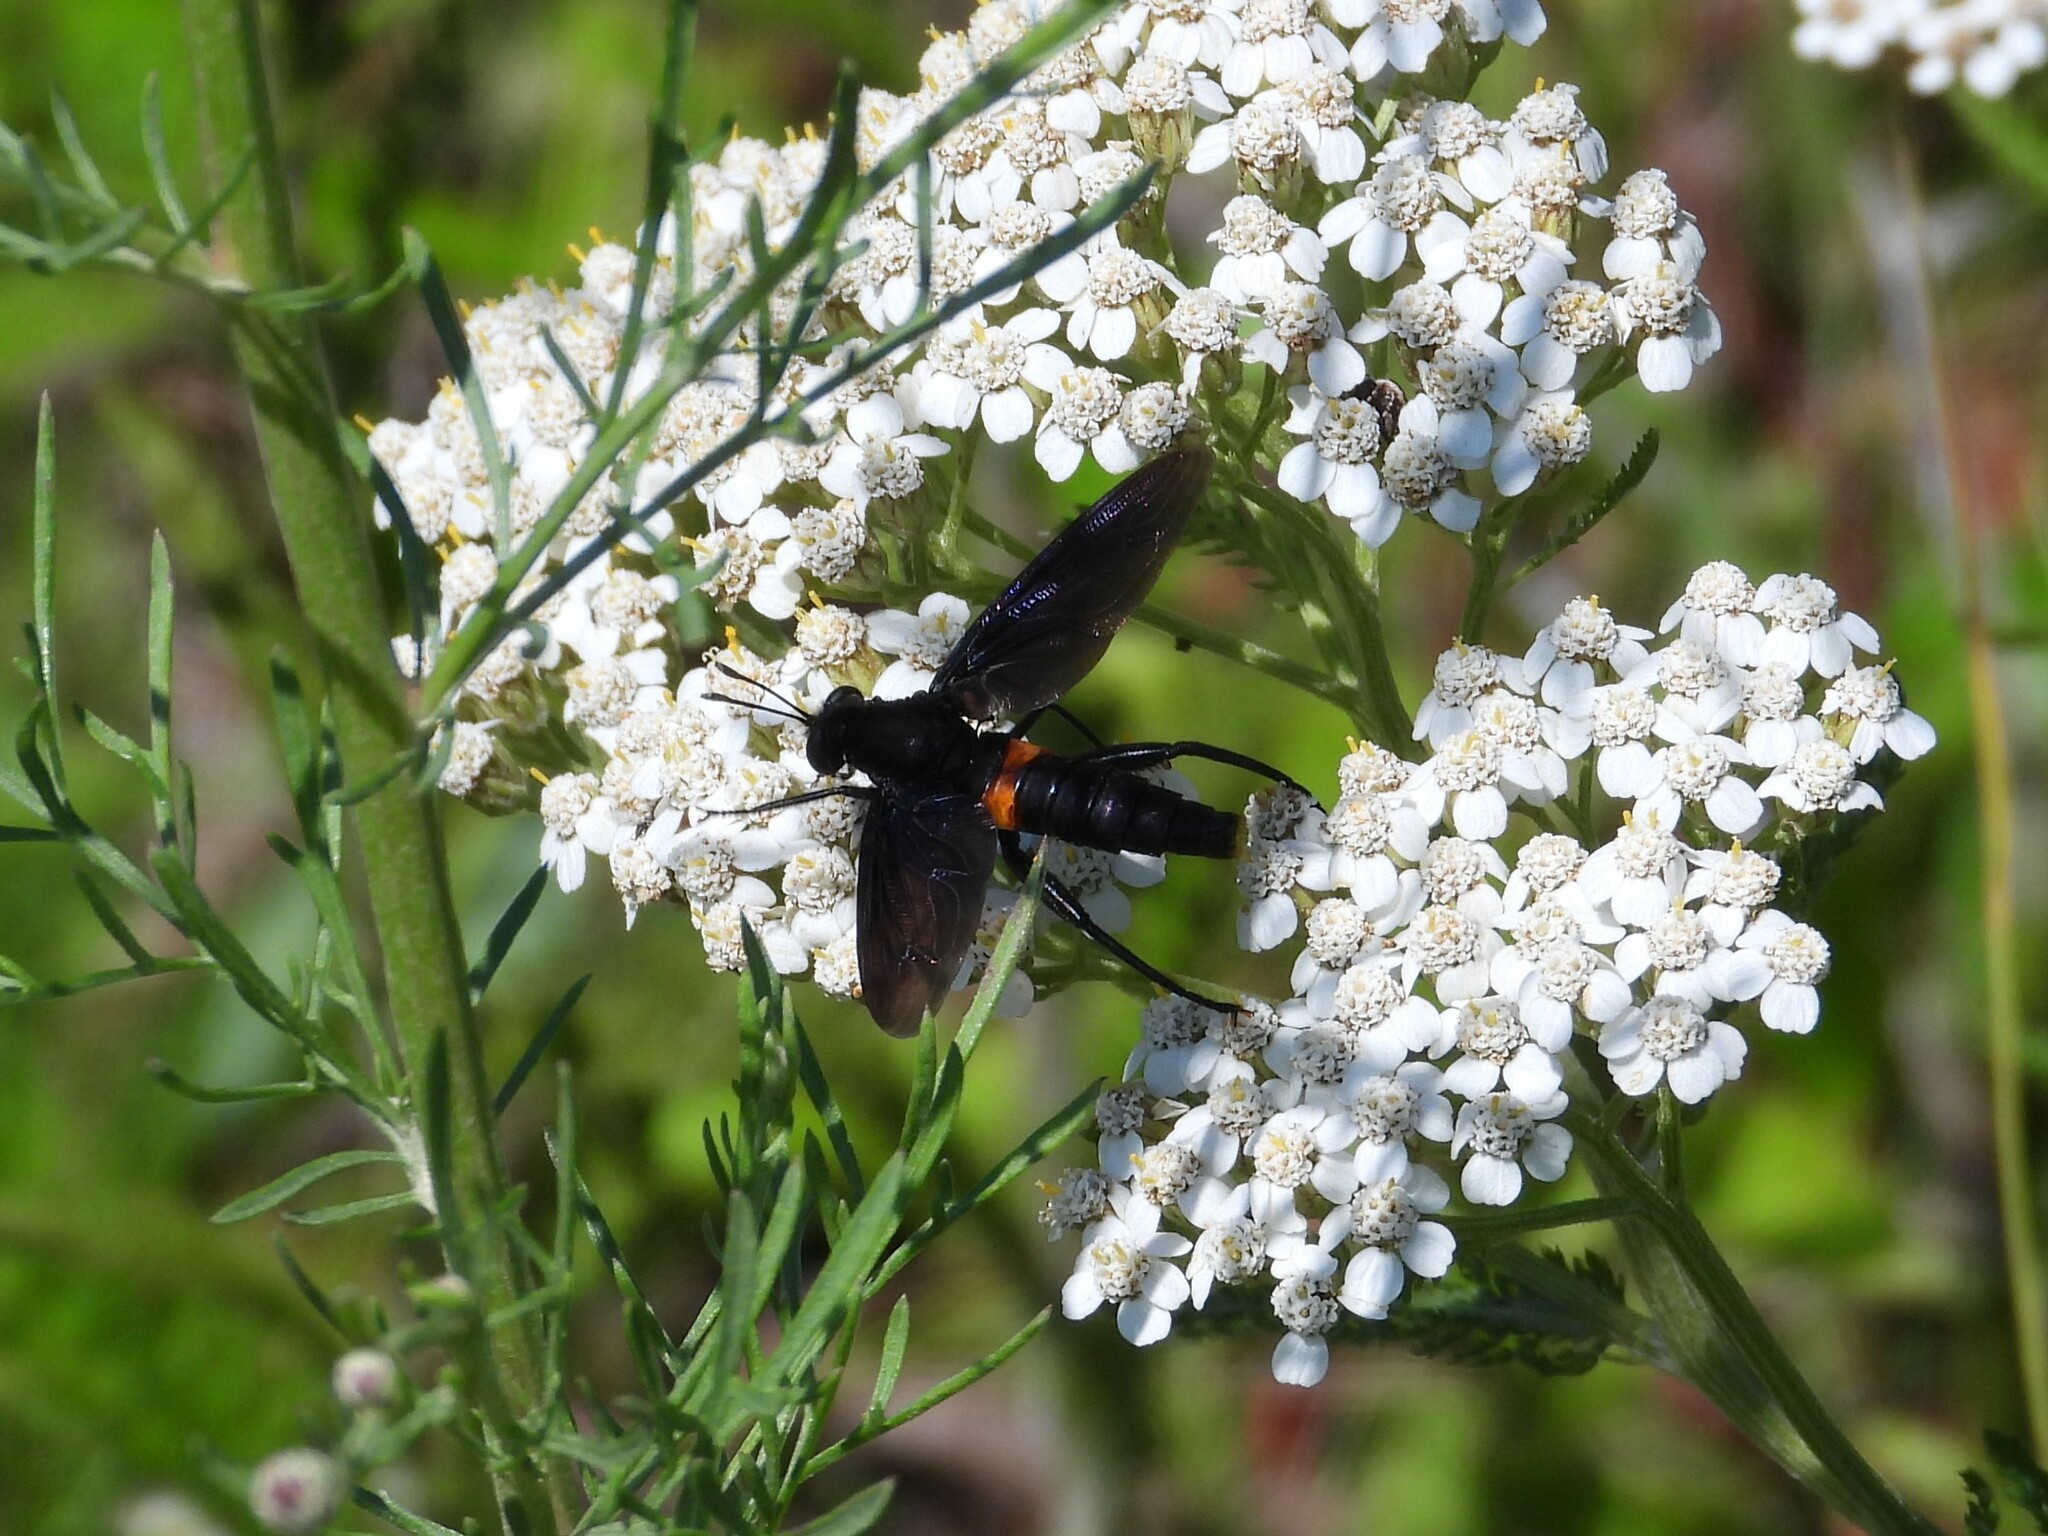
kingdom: Animalia
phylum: Arthropoda
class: Insecta
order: Diptera
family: Mydidae
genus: Mydas
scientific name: Mydas clavatus
